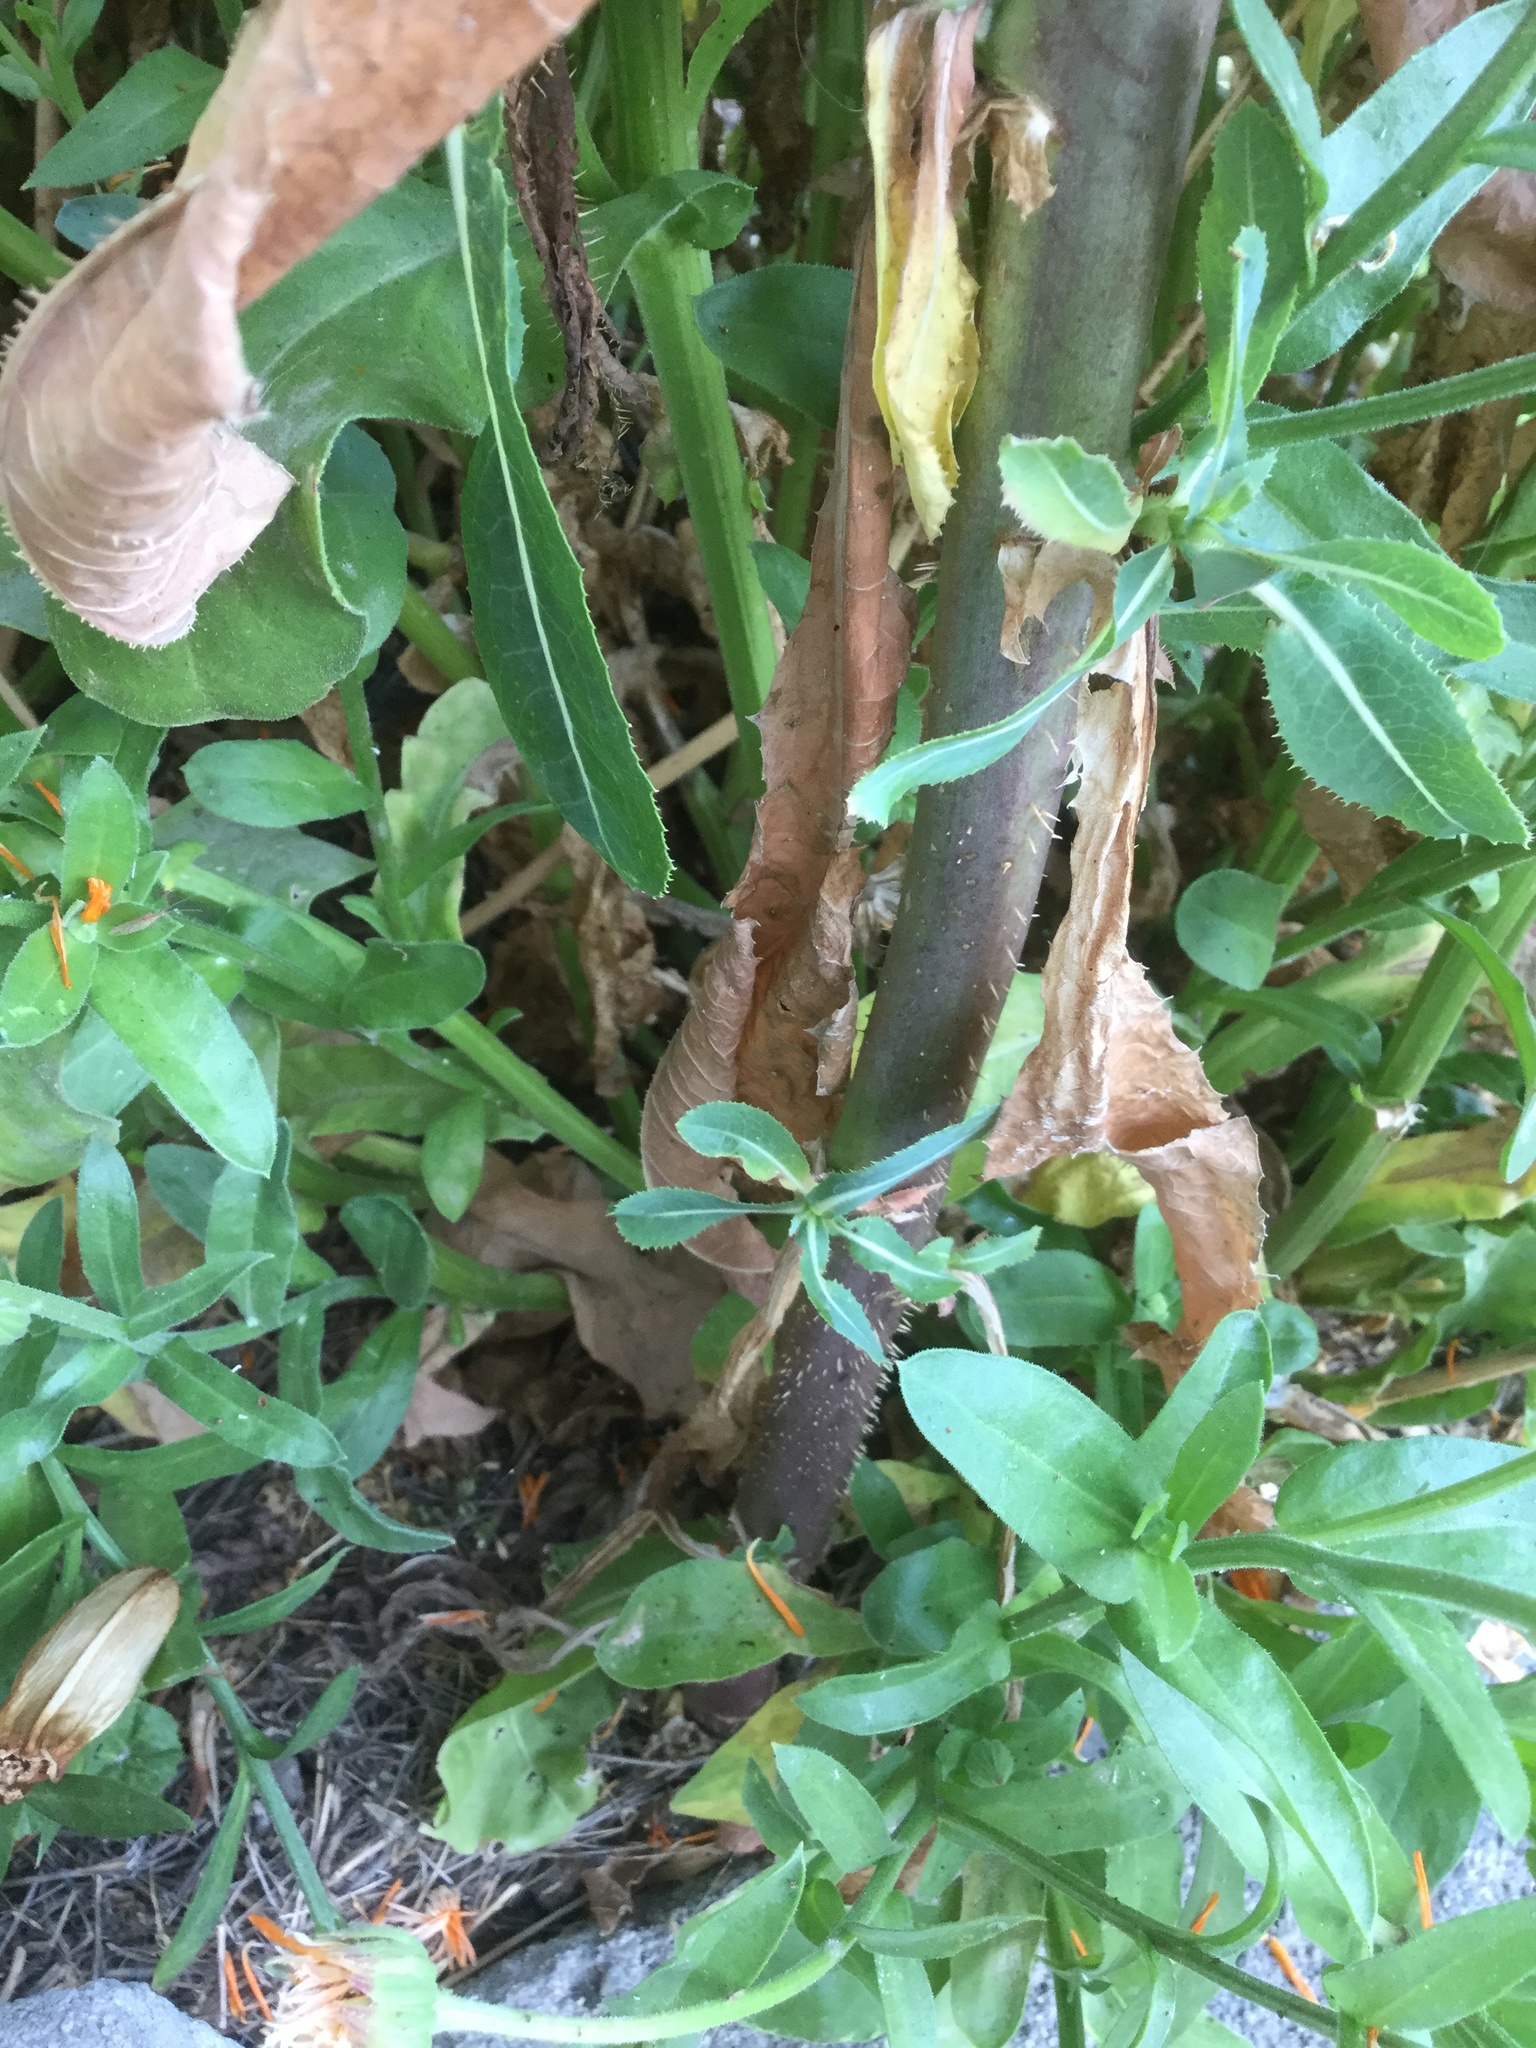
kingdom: Plantae
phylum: Tracheophyta
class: Magnoliopsida
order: Asterales
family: Asteraceae
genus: Lactuca
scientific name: Lactuca serriola
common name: Prickly lettuce
